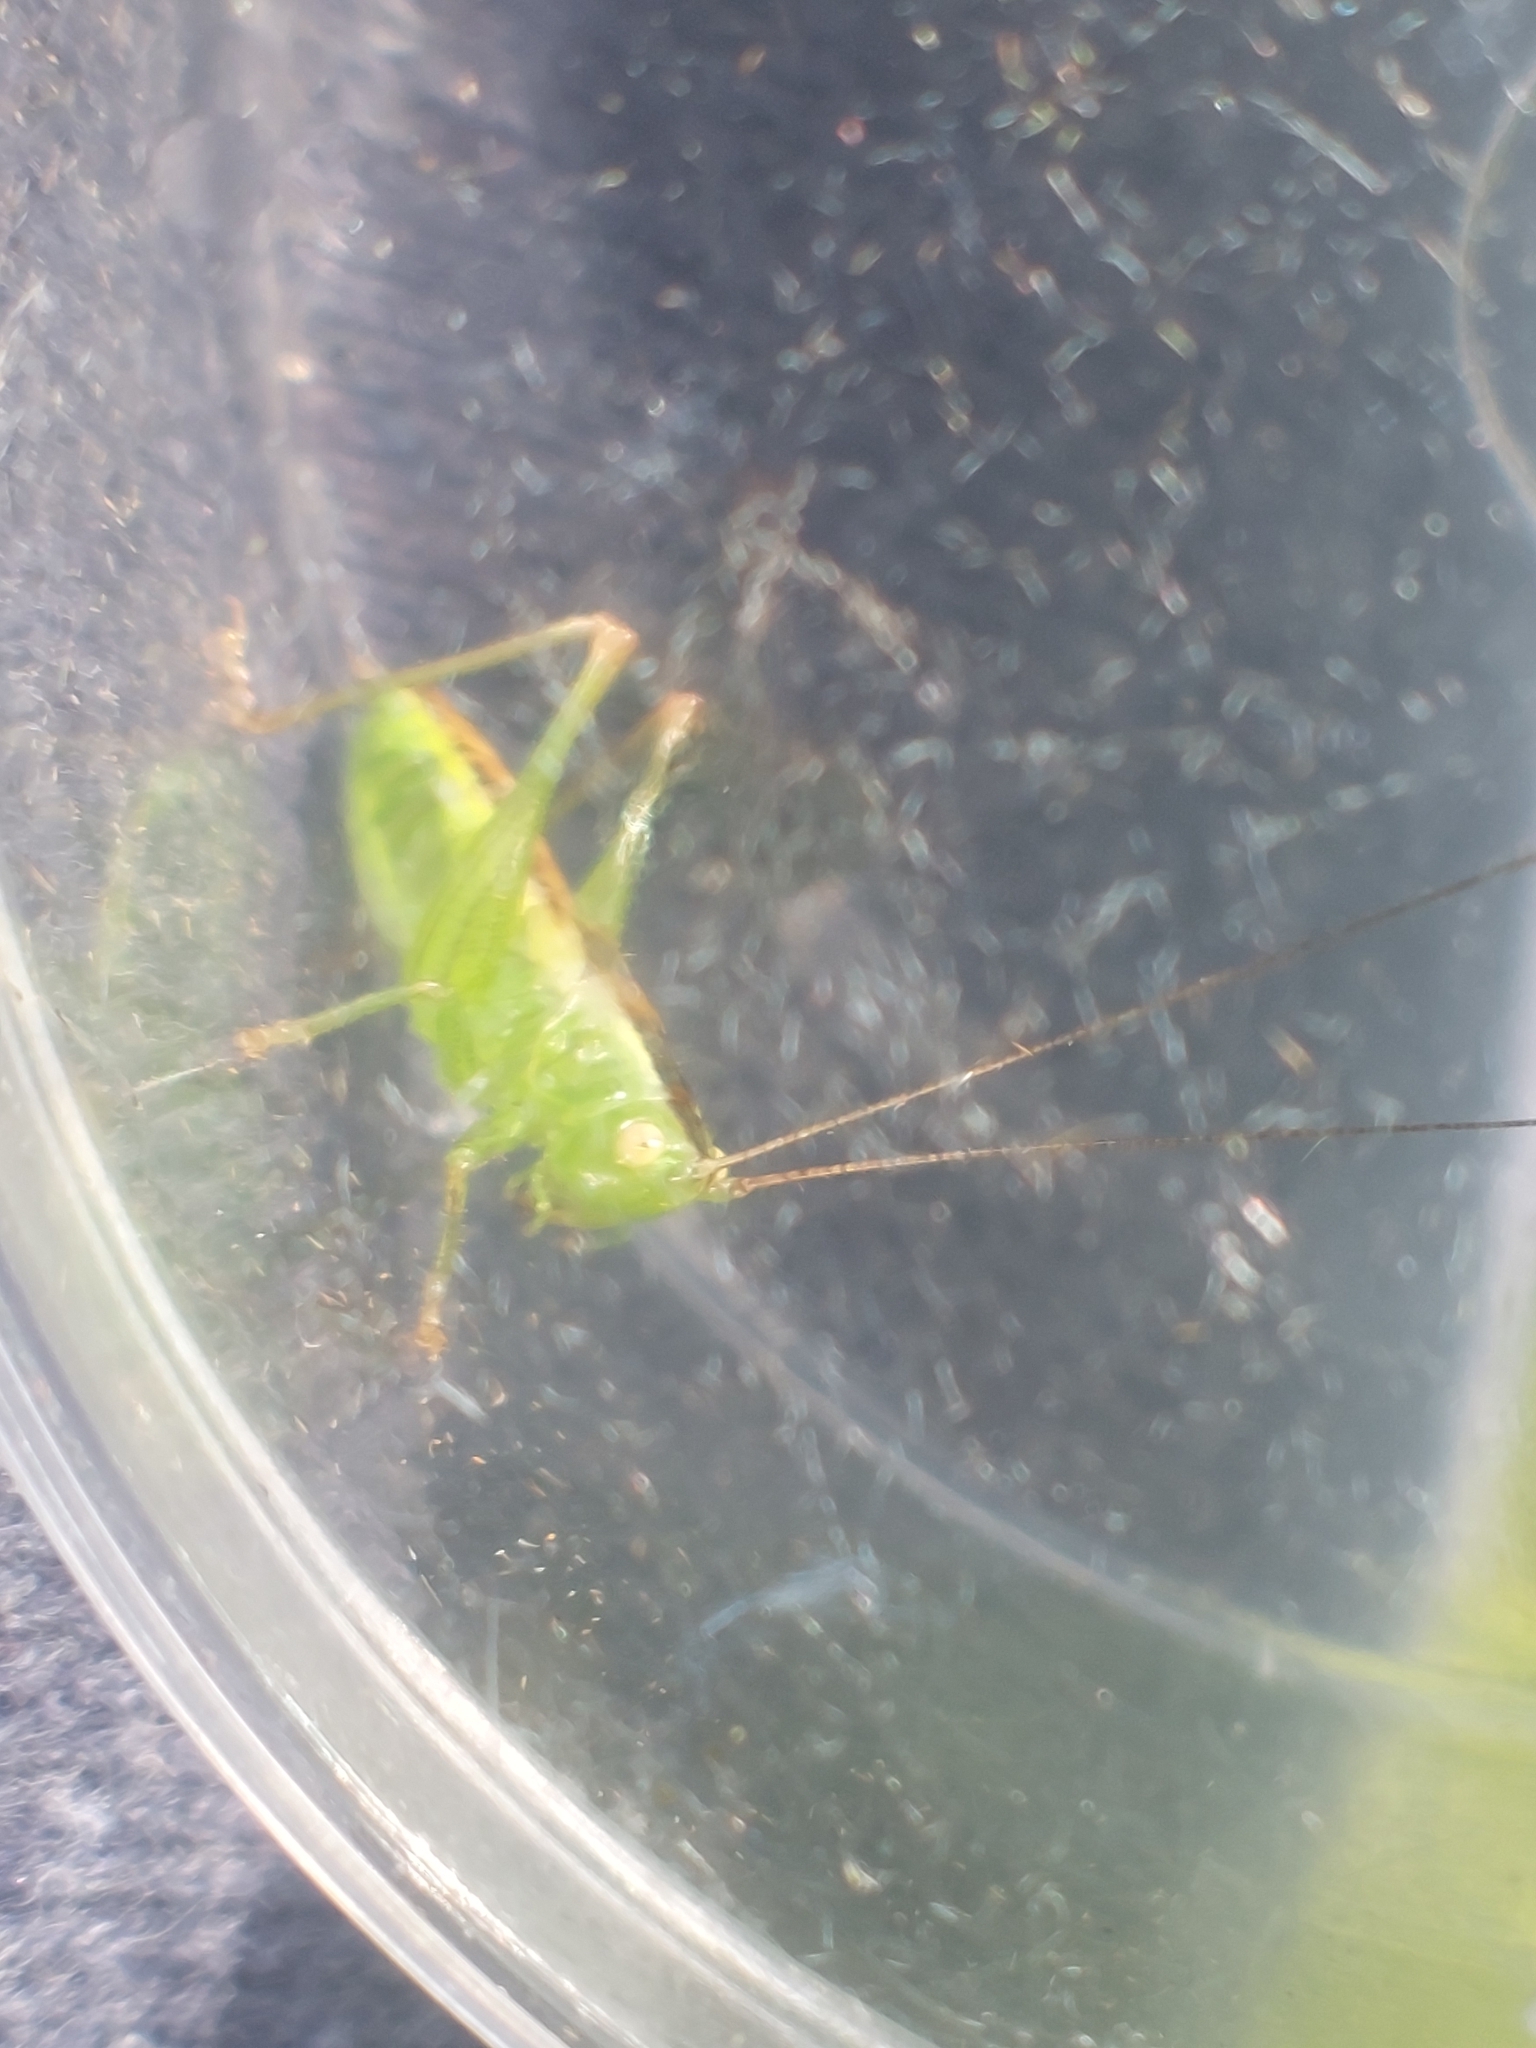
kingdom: Animalia
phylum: Arthropoda
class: Insecta
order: Orthoptera
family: Tettigoniidae
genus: Conocephalus
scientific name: Conocephalus dorsalis
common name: Short-winged conehead
